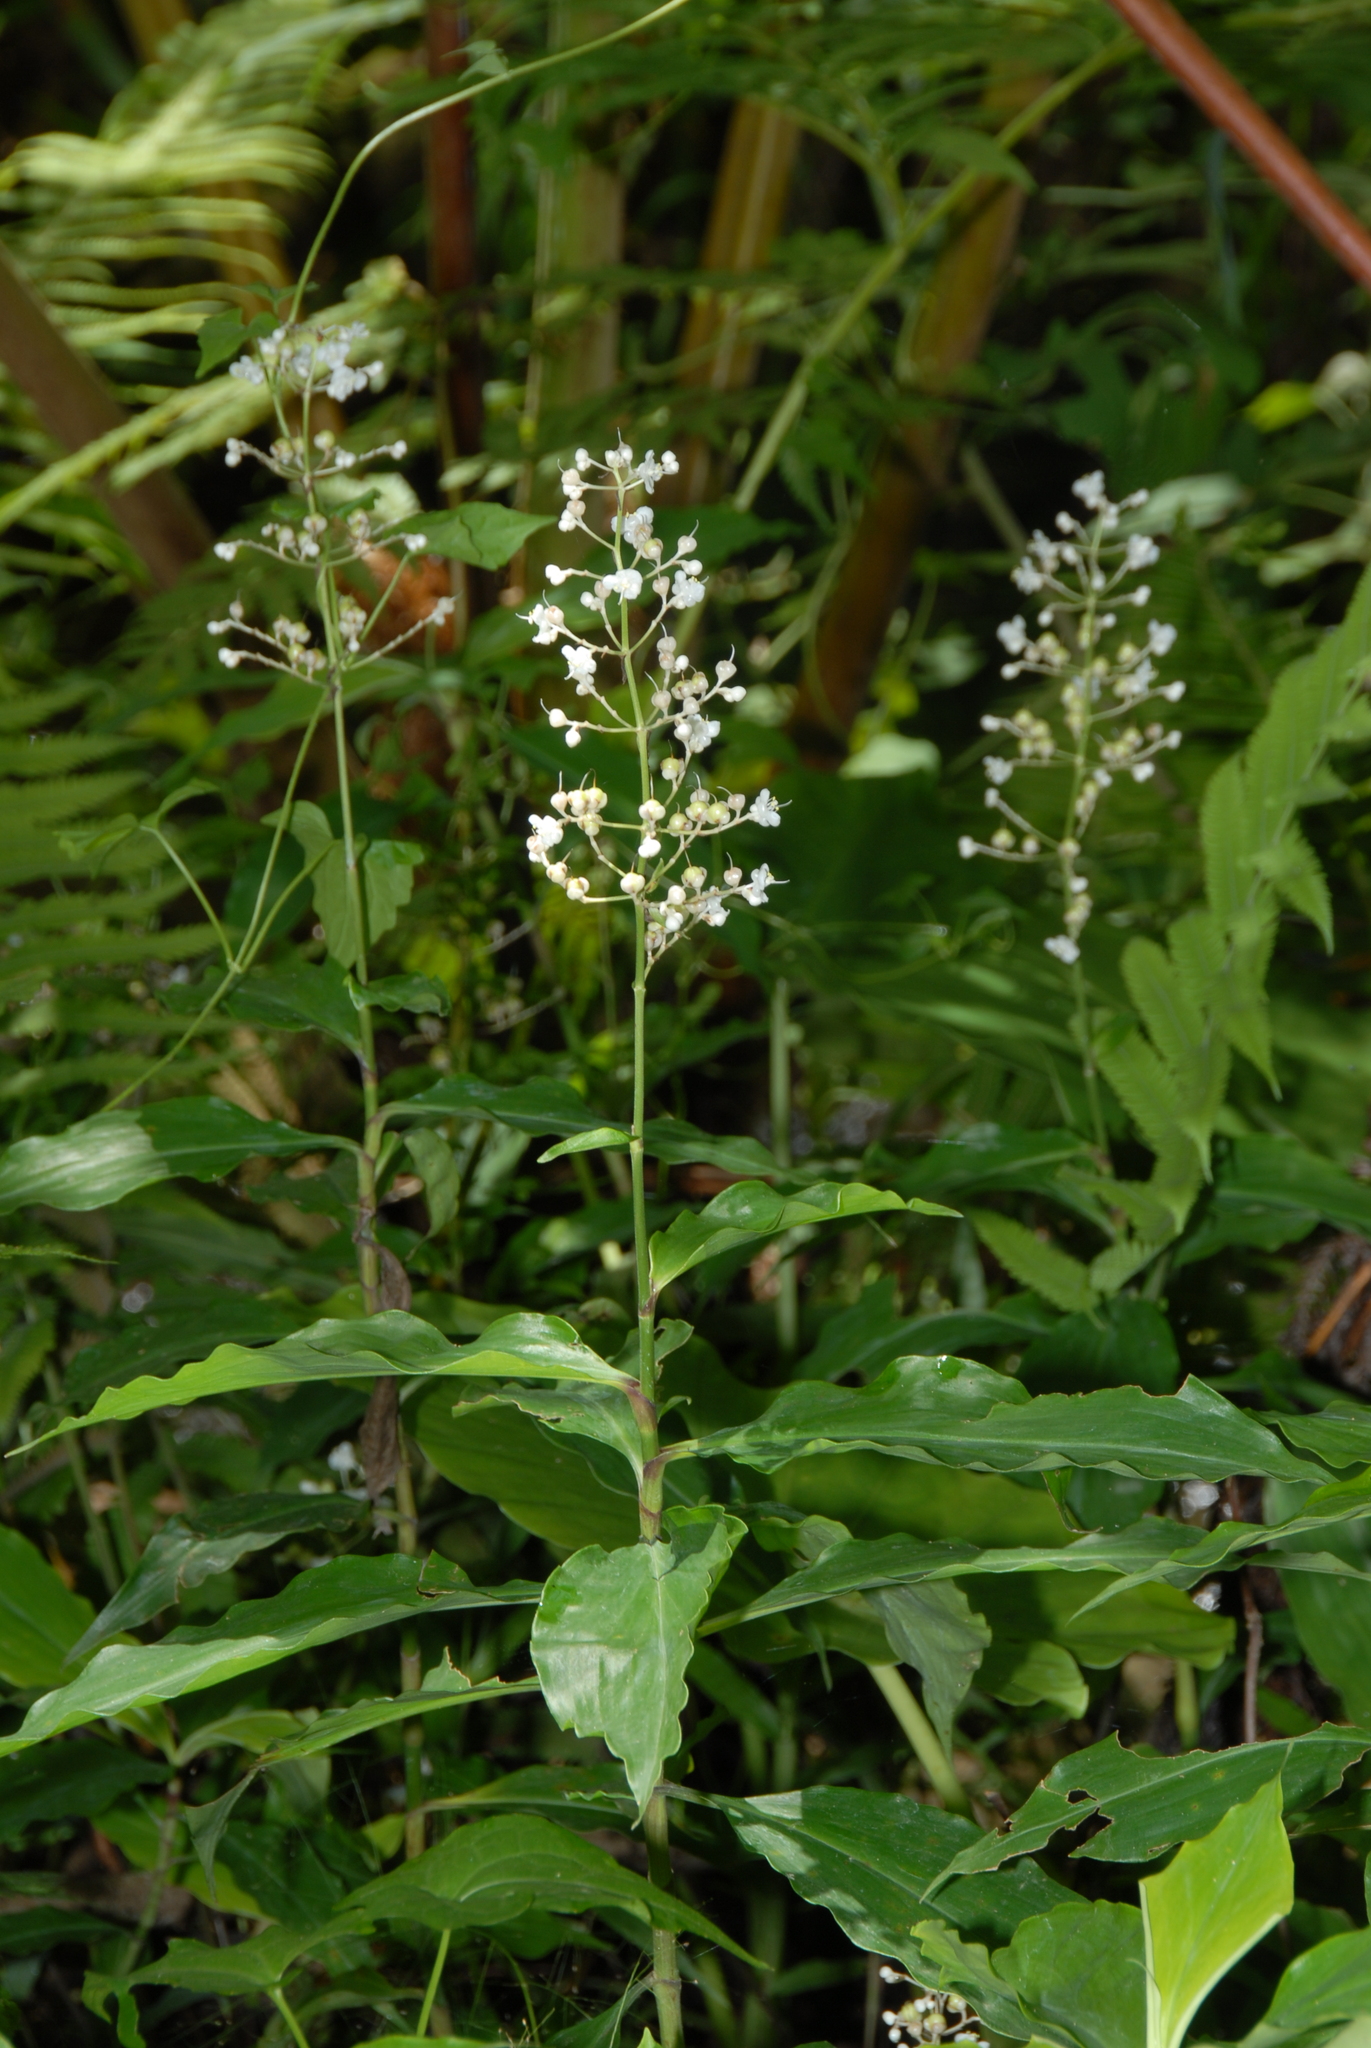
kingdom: Plantae
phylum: Tracheophyta
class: Liliopsida
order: Commelinales
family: Commelinaceae
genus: Pollia
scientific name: Pollia japonica
